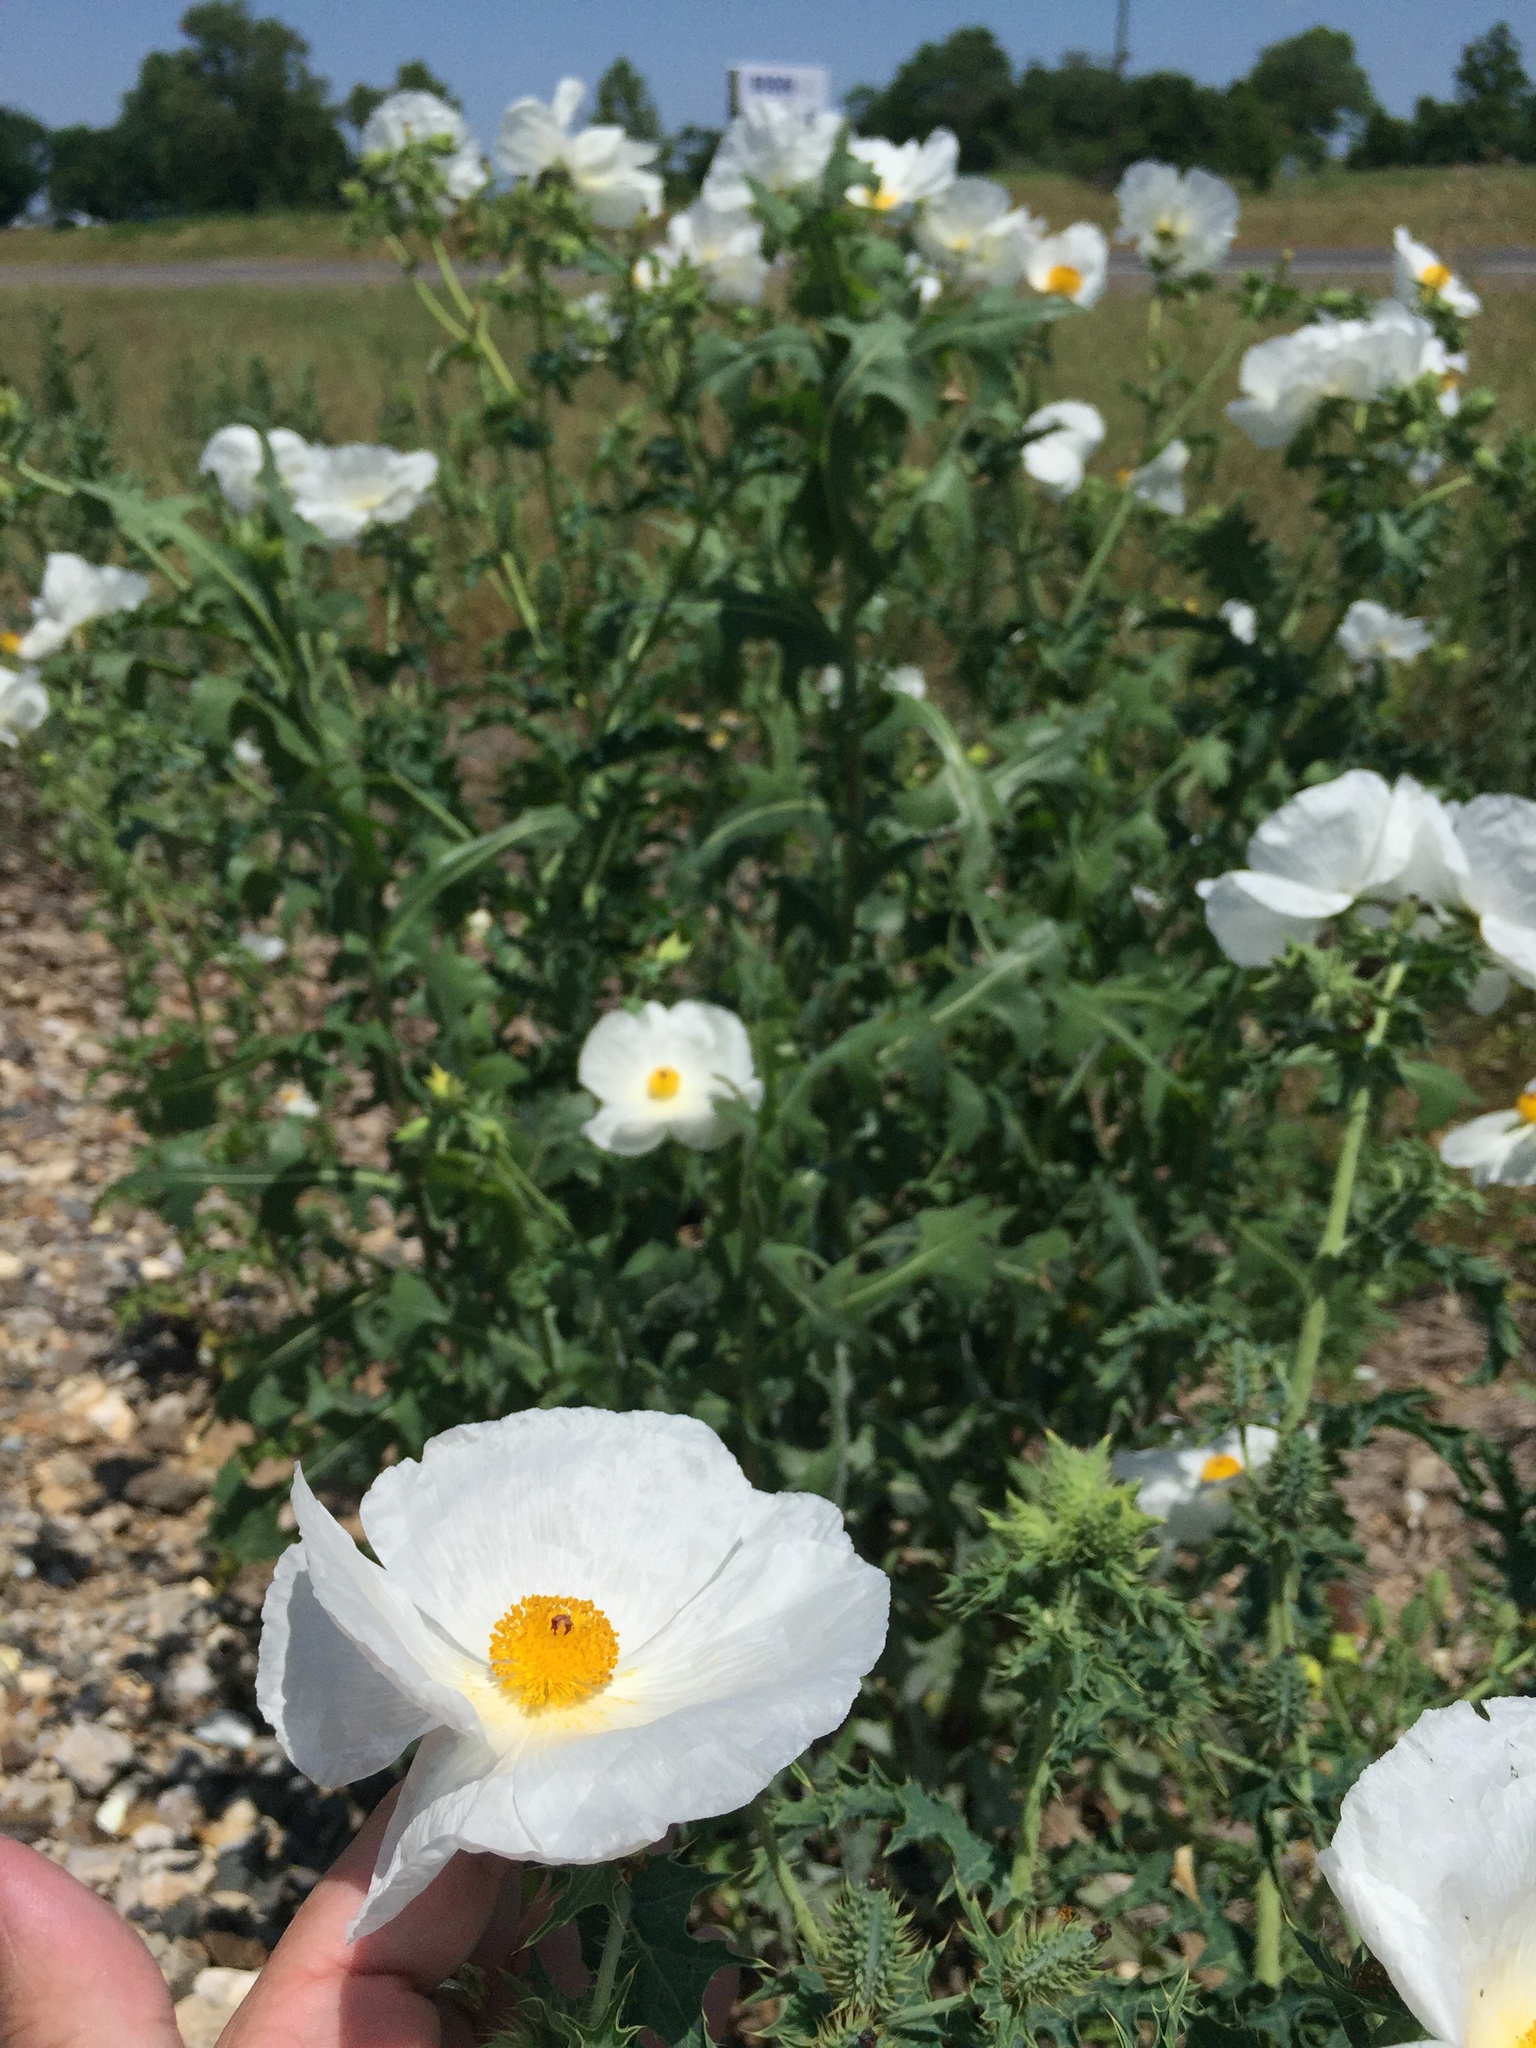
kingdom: Plantae
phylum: Tracheophyta
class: Magnoliopsida
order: Ranunculales
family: Papaveraceae
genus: Argemone
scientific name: Argemone albiflora
